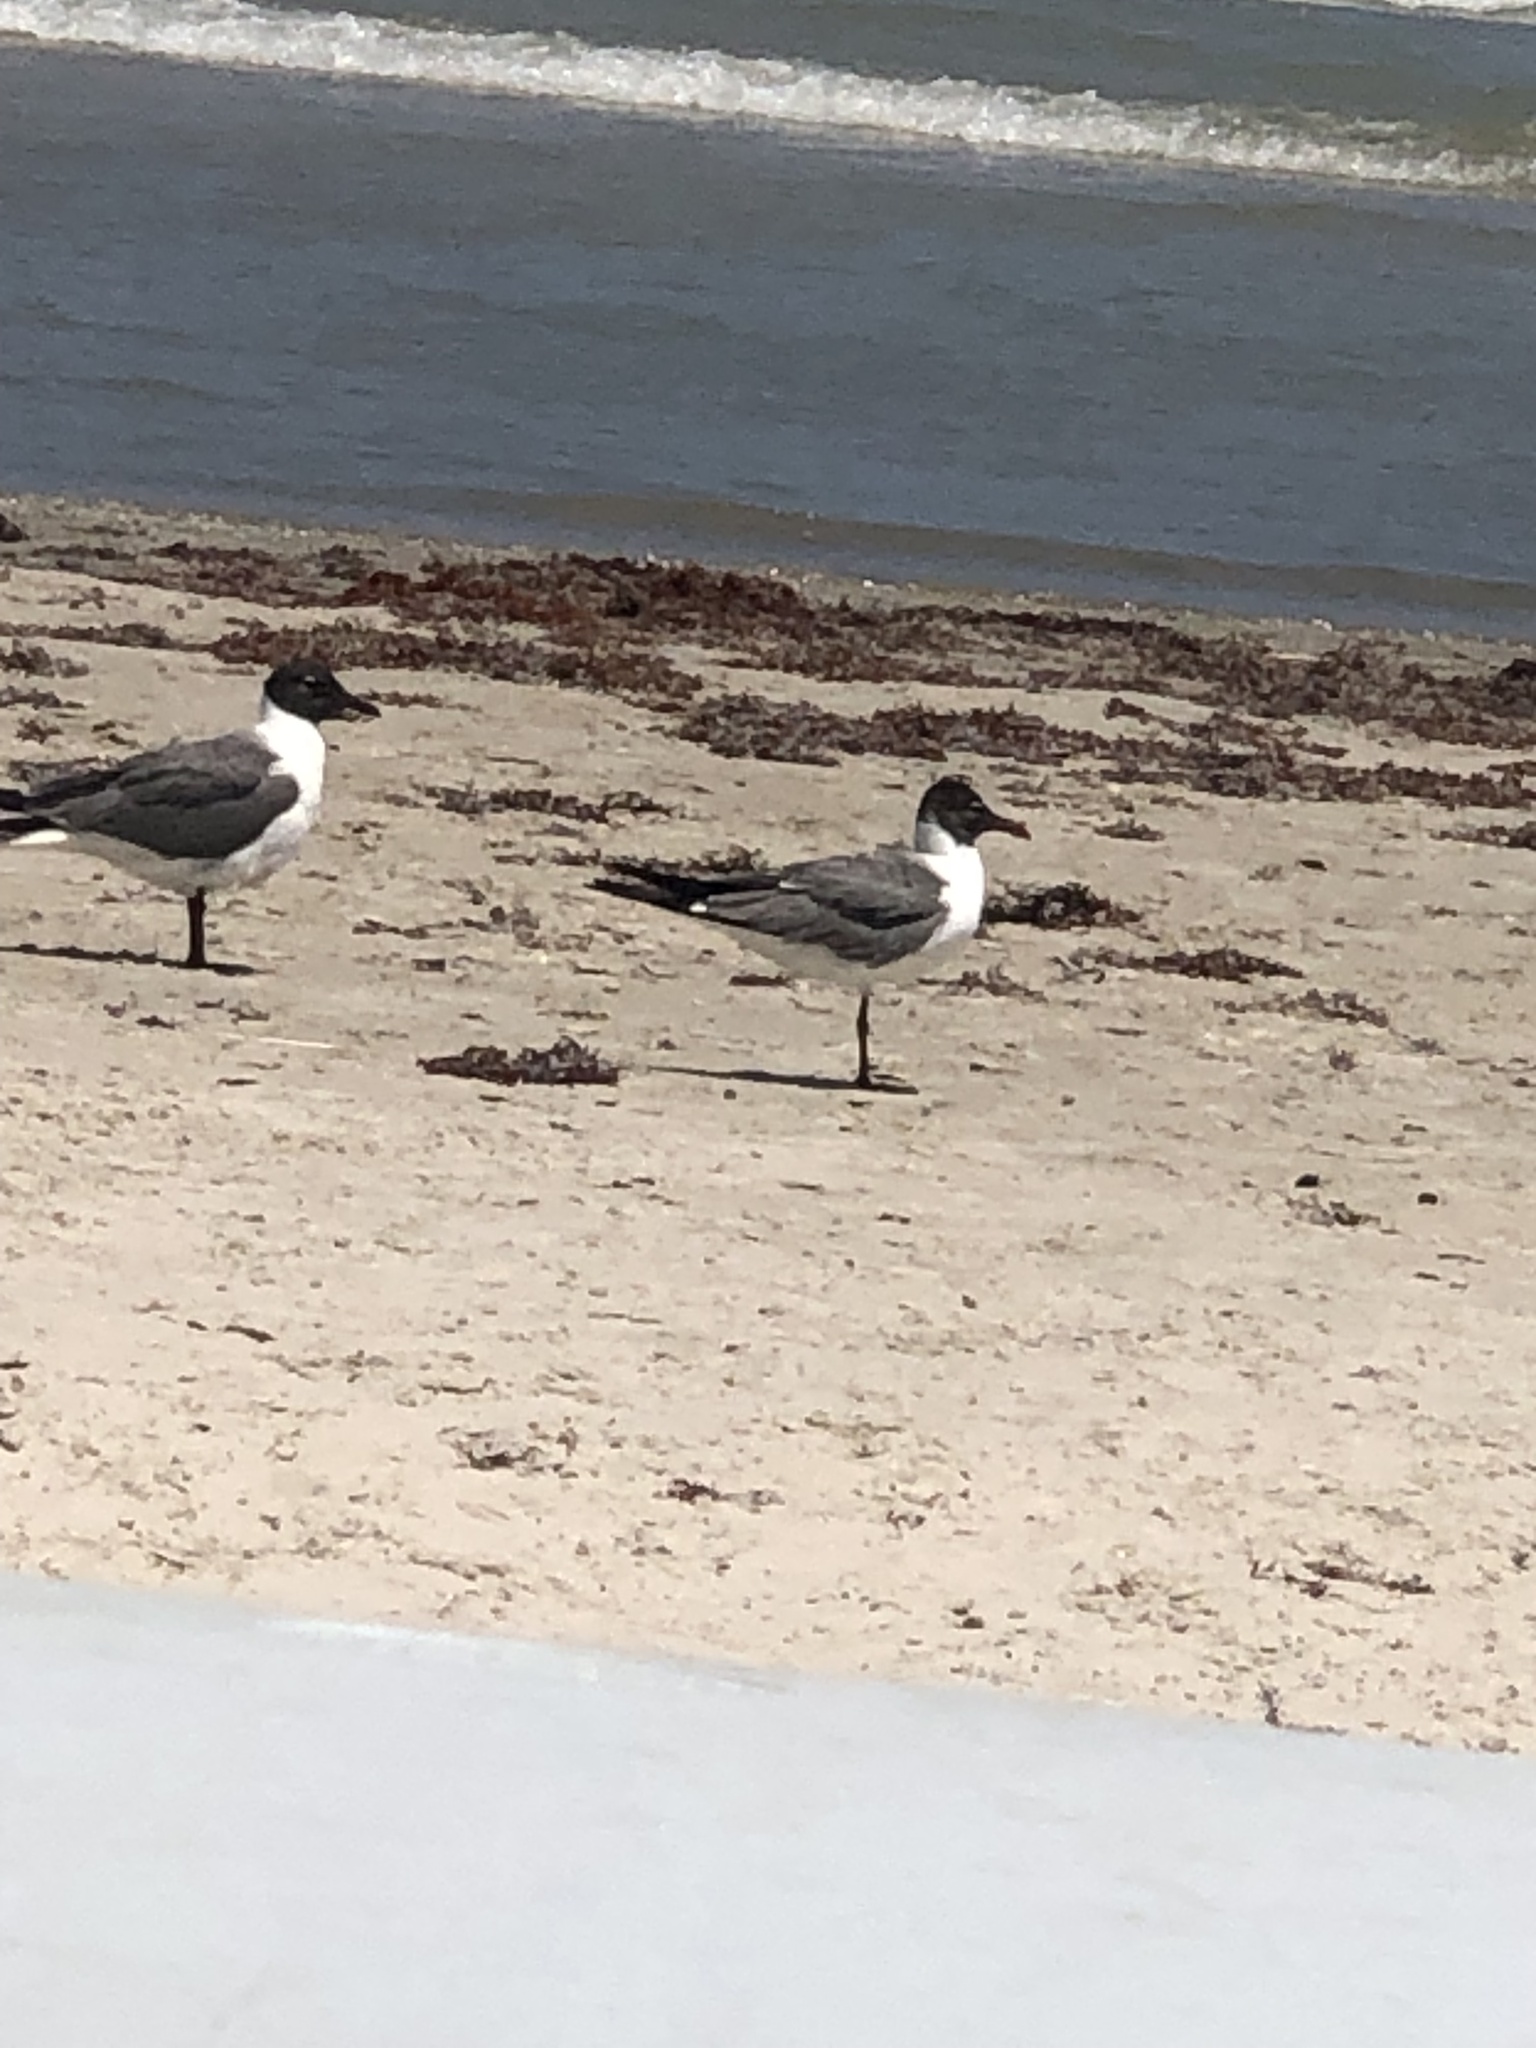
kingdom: Animalia
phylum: Chordata
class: Aves
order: Charadriiformes
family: Laridae
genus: Leucophaeus
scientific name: Leucophaeus atricilla
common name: Laughing gull
